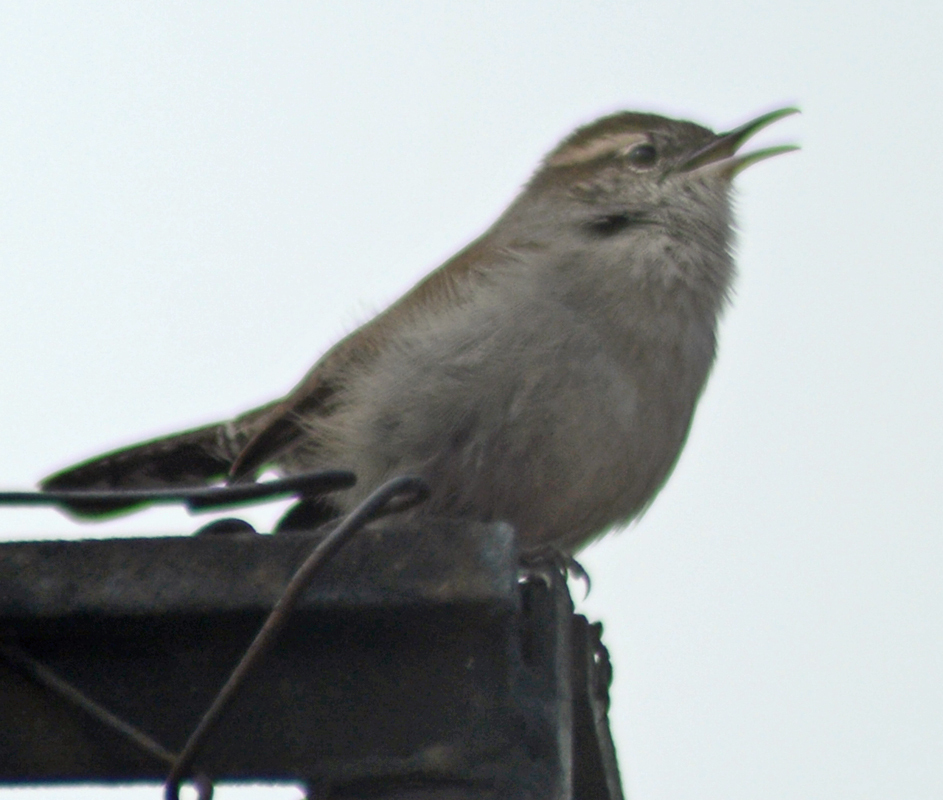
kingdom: Animalia
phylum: Chordata
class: Aves
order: Passeriformes
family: Troglodytidae
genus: Thryomanes
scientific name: Thryomanes bewickii
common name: Bewick's wren
